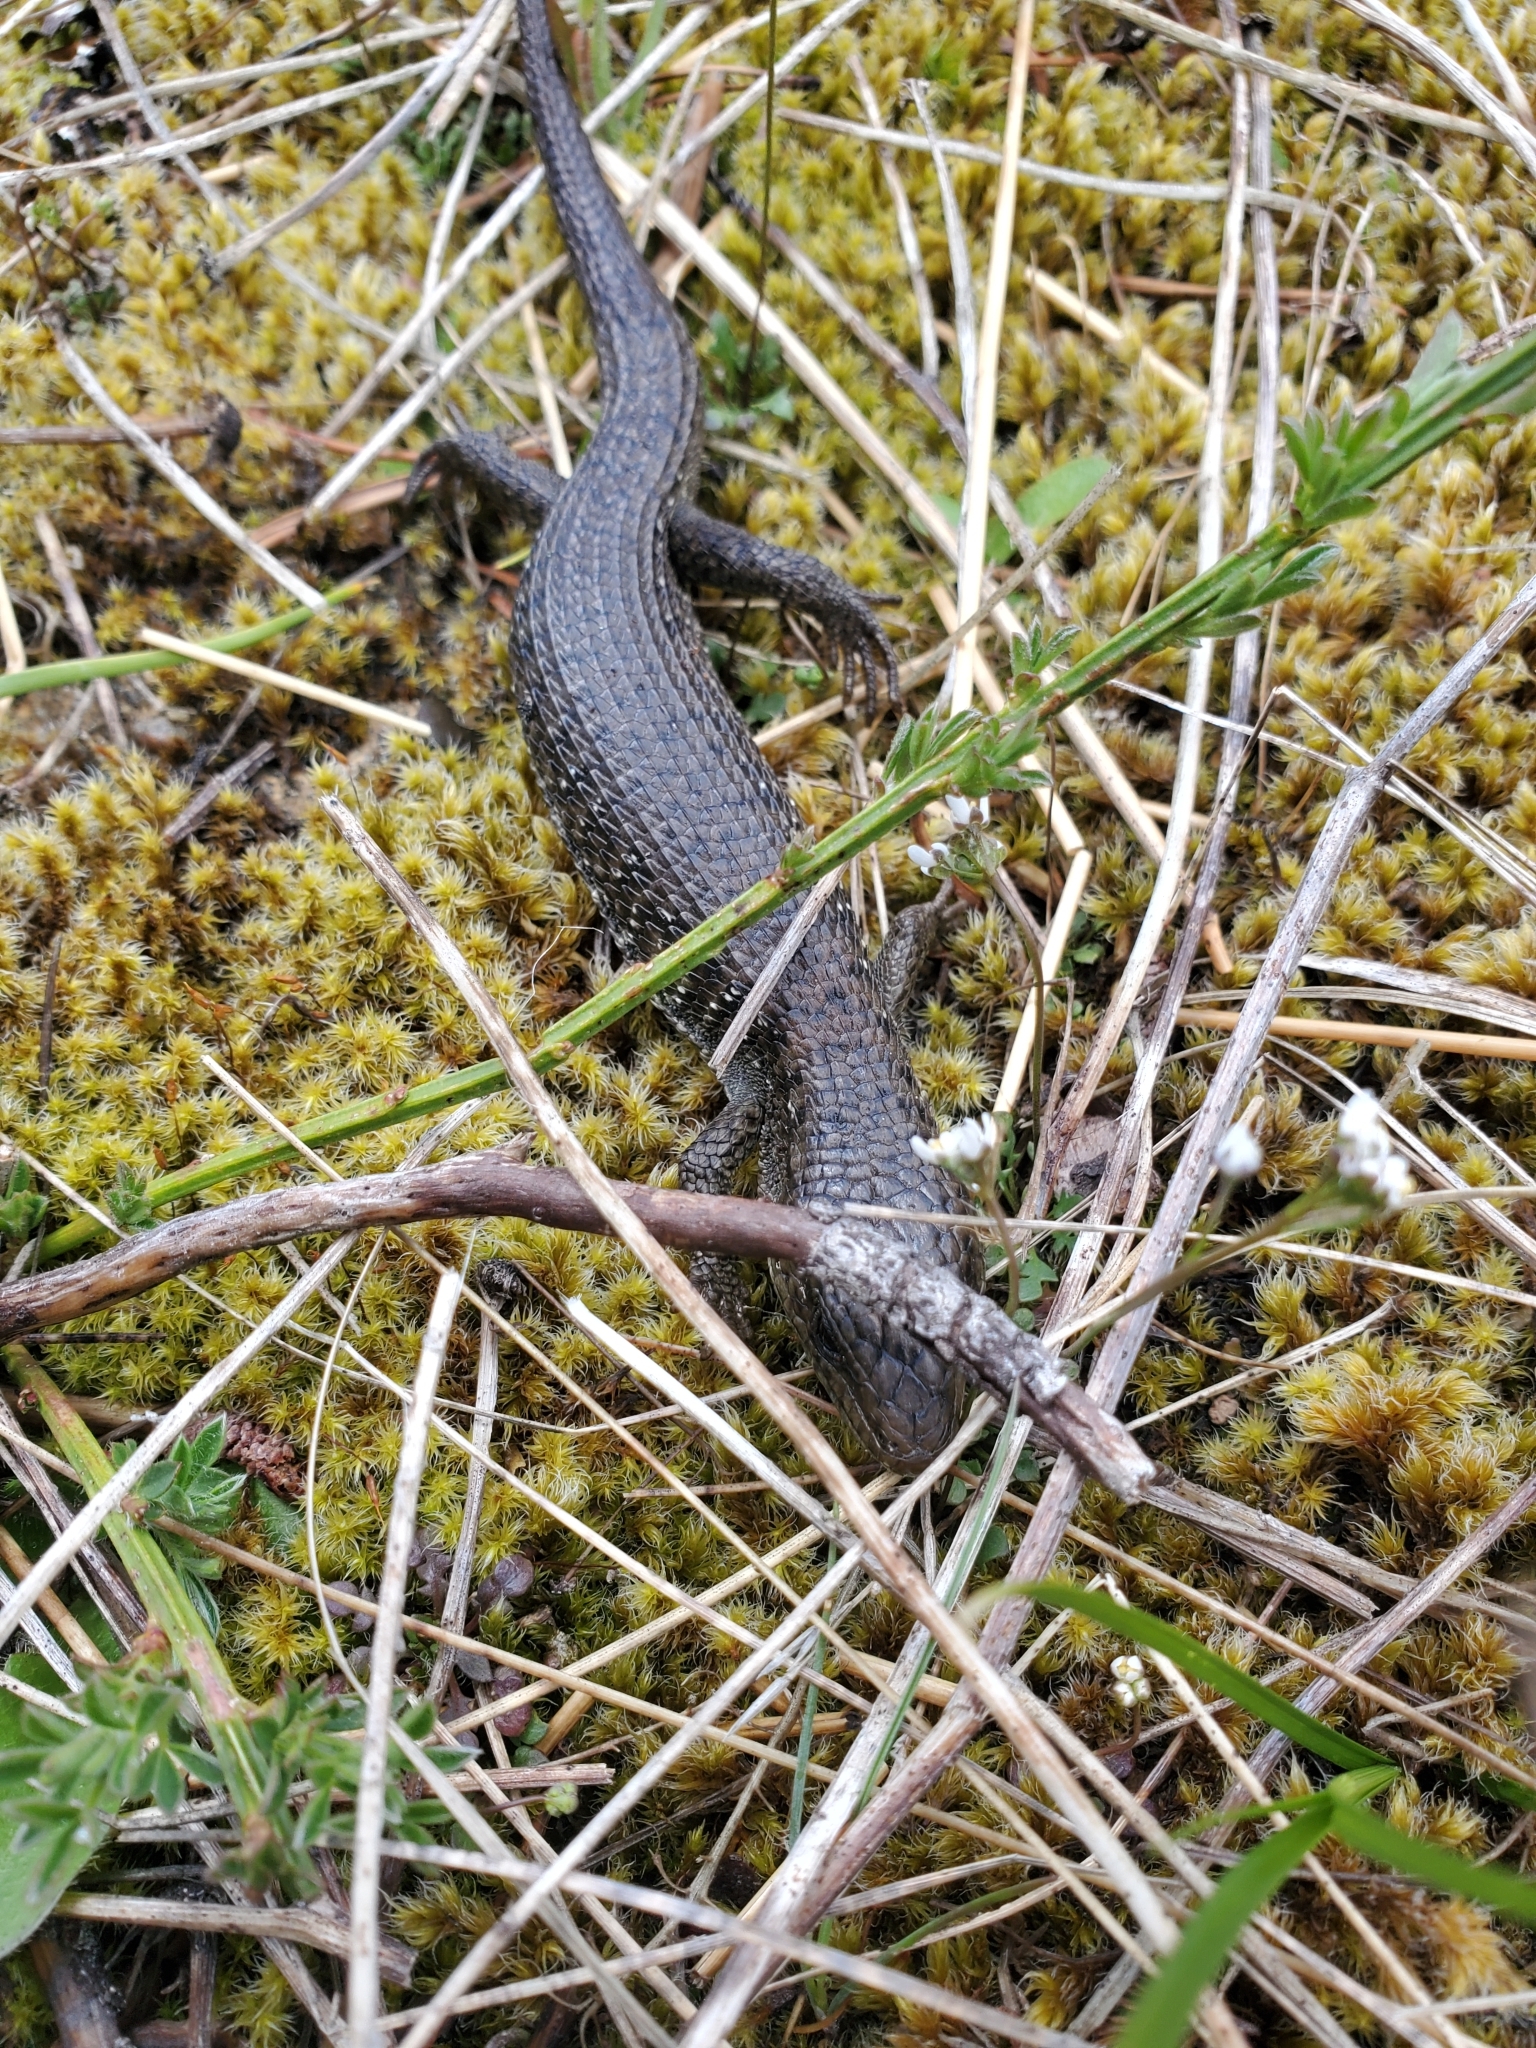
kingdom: Animalia
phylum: Chordata
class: Squamata
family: Anguidae
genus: Elgaria
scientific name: Elgaria coerulea
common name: Northern alligator lizard
